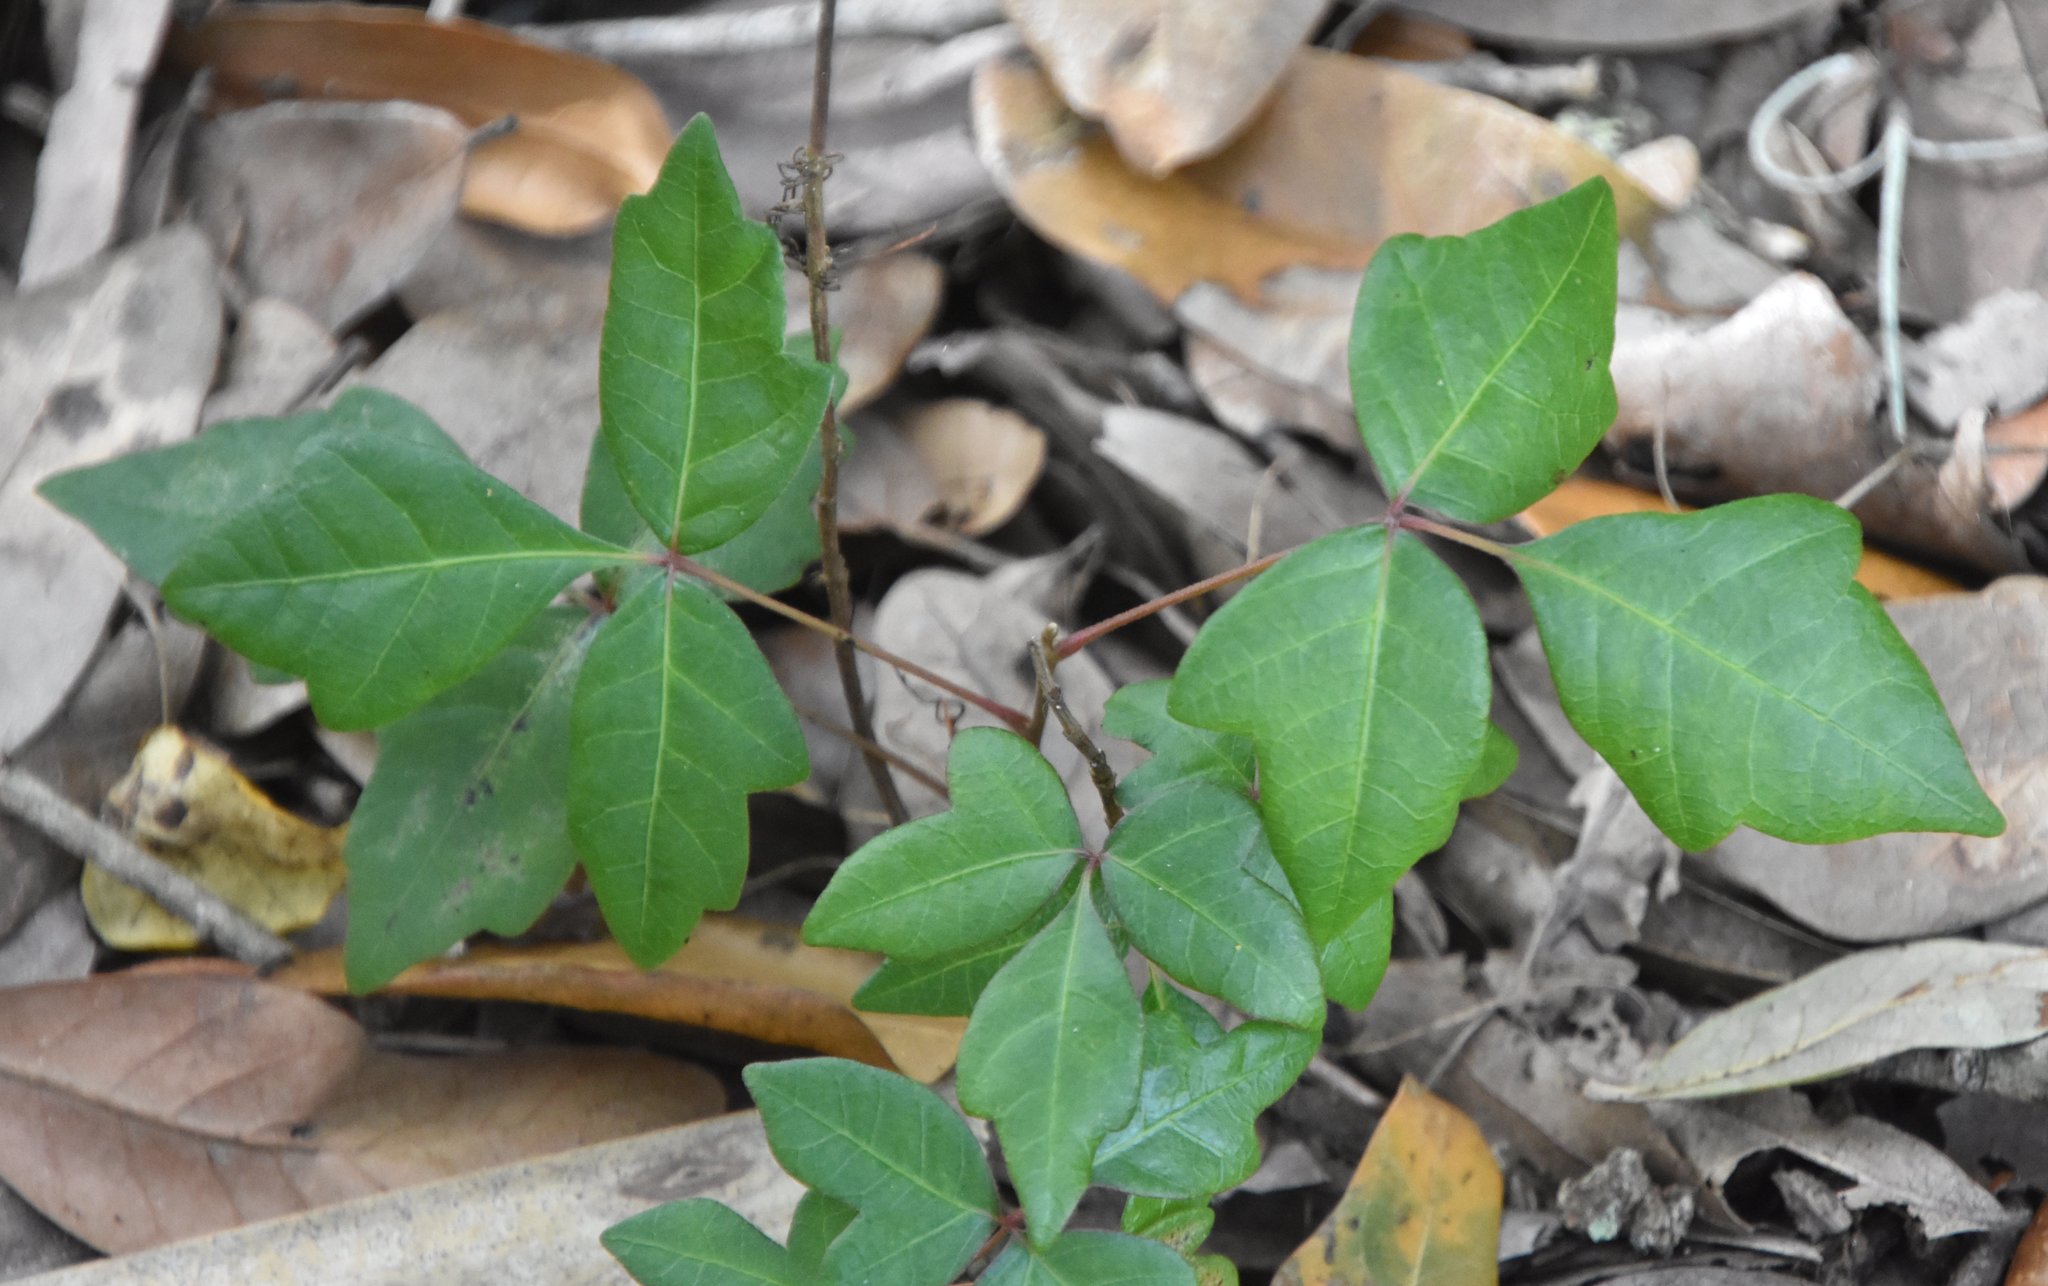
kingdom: Plantae
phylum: Tracheophyta
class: Magnoliopsida
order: Sapindales
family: Anacardiaceae
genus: Toxicodendron
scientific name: Toxicodendron radicans
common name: Poison ivy
